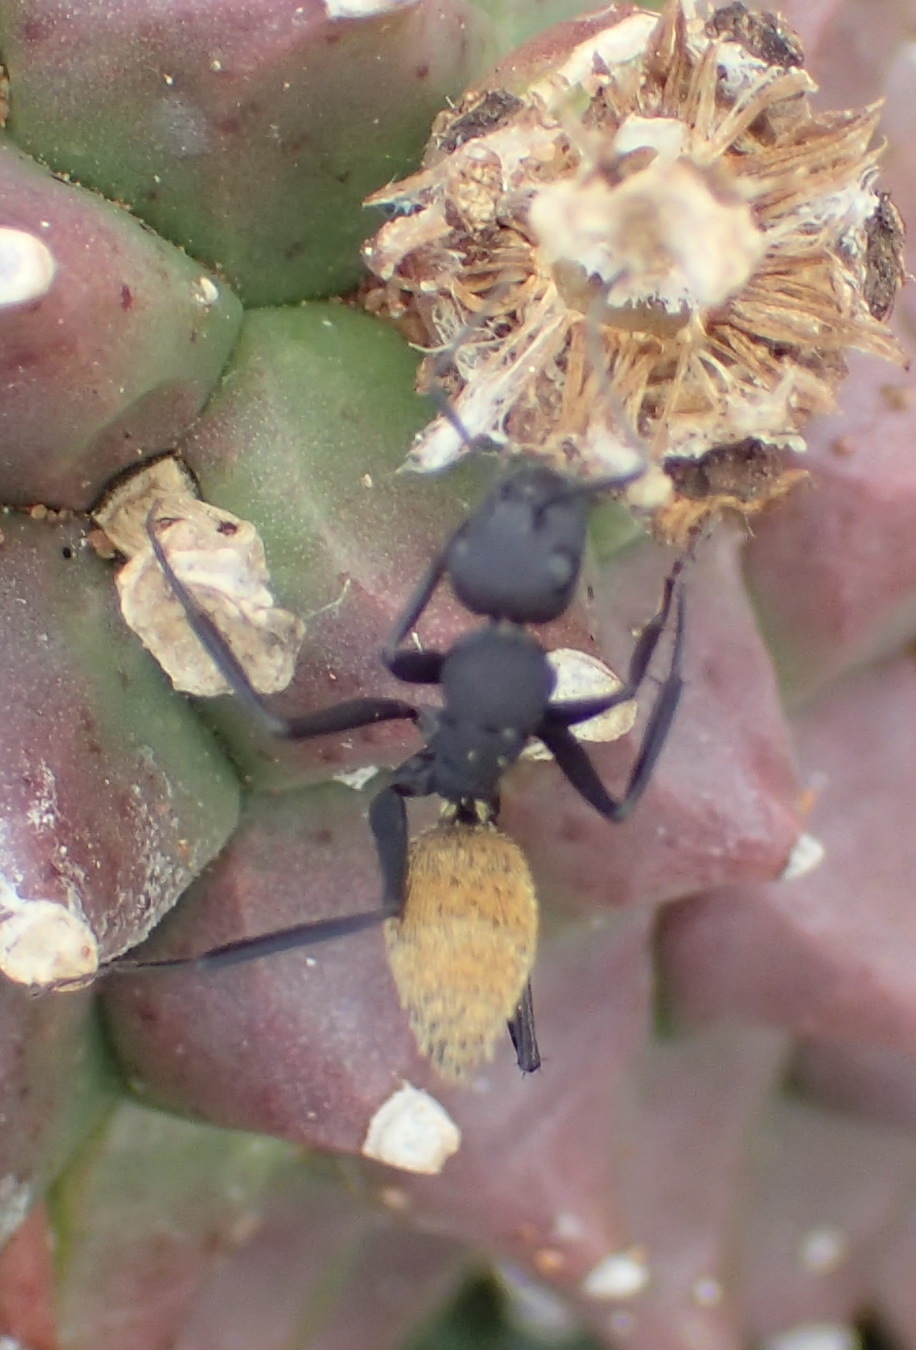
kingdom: Animalia
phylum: Arthropoda
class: Insecta
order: Hymenoptera
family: Formicidae
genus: Camponotus
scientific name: Camponotus fulvopilosus
